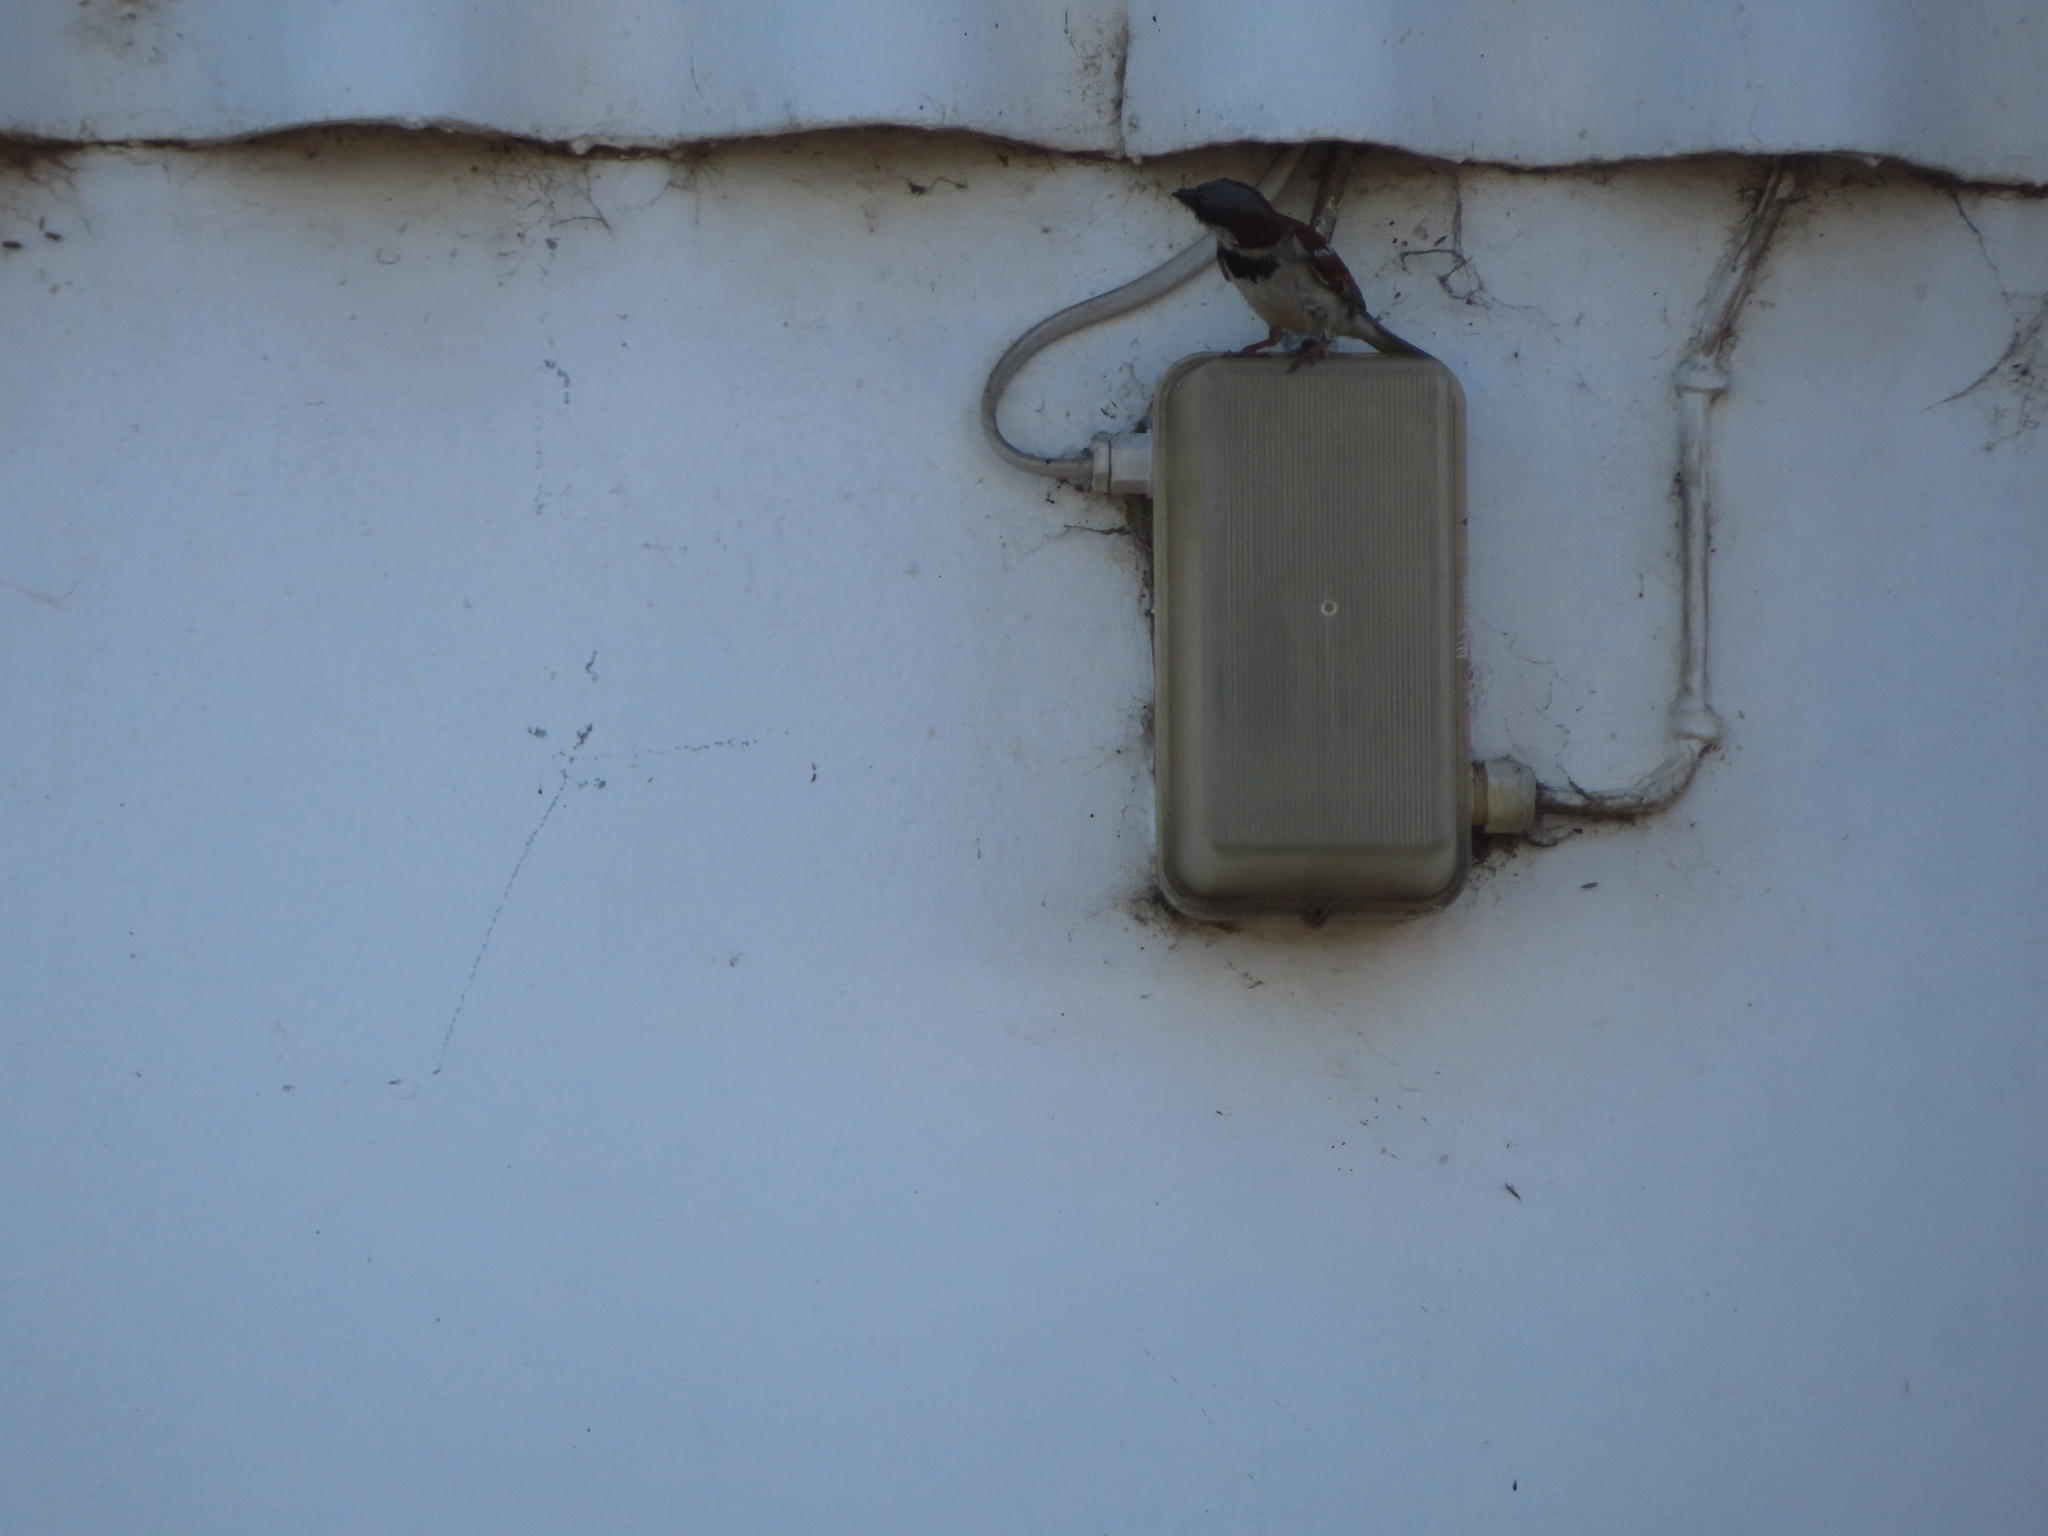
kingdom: Animalia
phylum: Chordata
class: Aves
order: Passeriformes
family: Passeridae
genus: Passer
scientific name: Passer domesticus
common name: House sparrow
